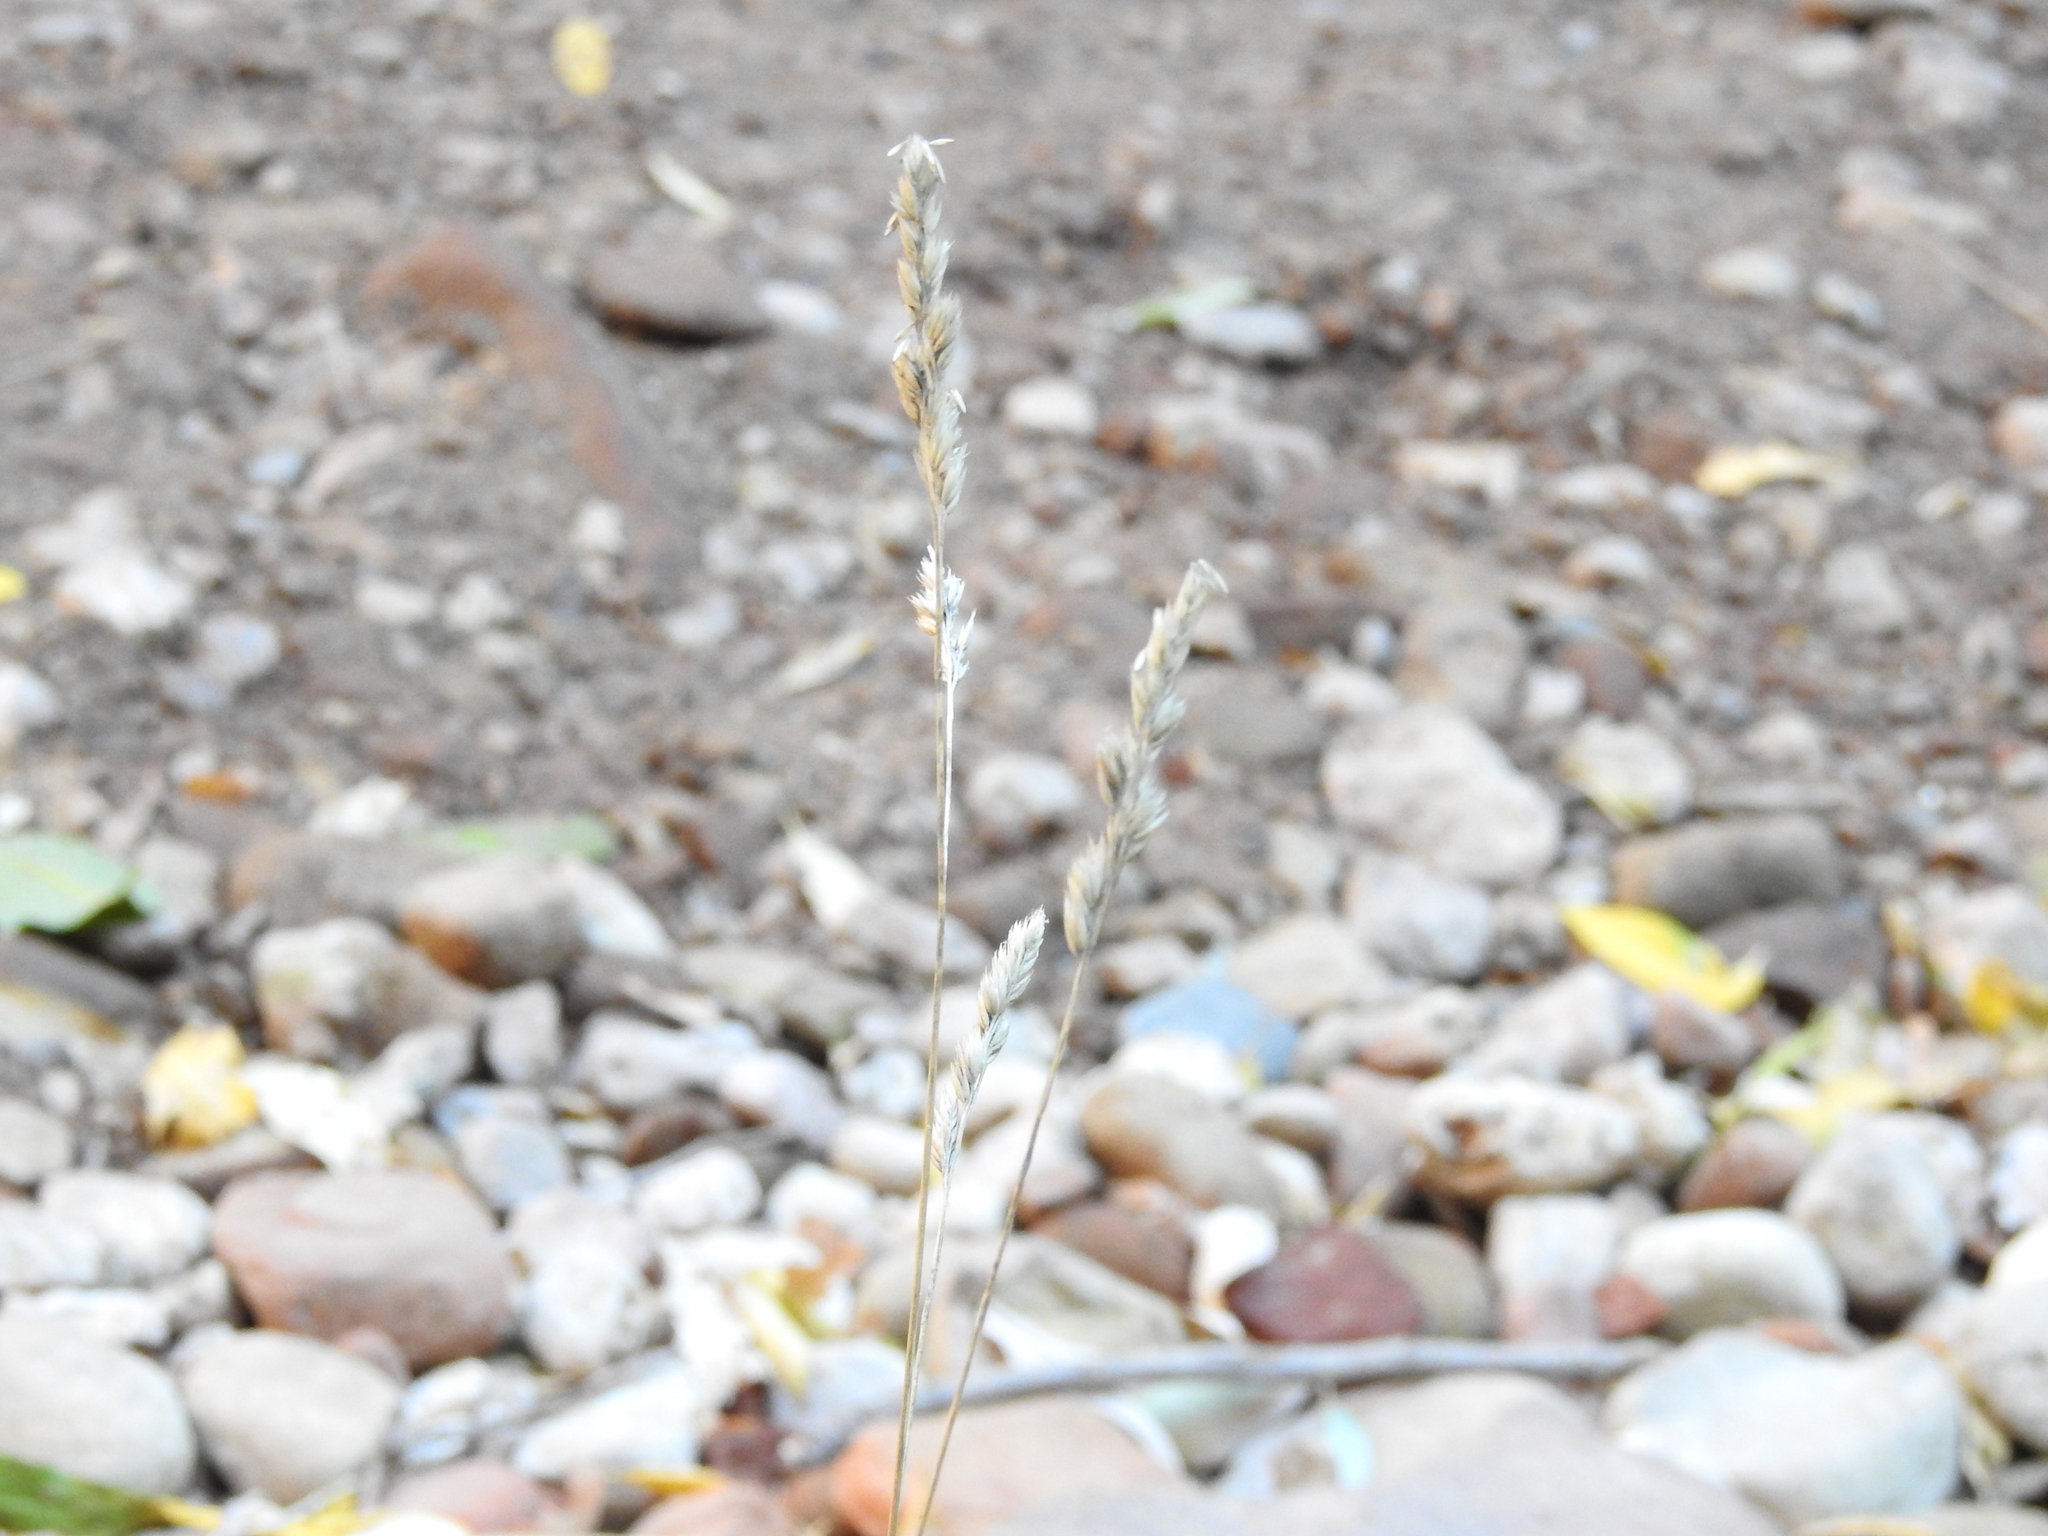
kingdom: Plantae
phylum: Tracheophyta
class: Liliopsida
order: Poales
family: Poaceae
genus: Dactylis
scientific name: Dactylis glomerata
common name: Orchardgrass
